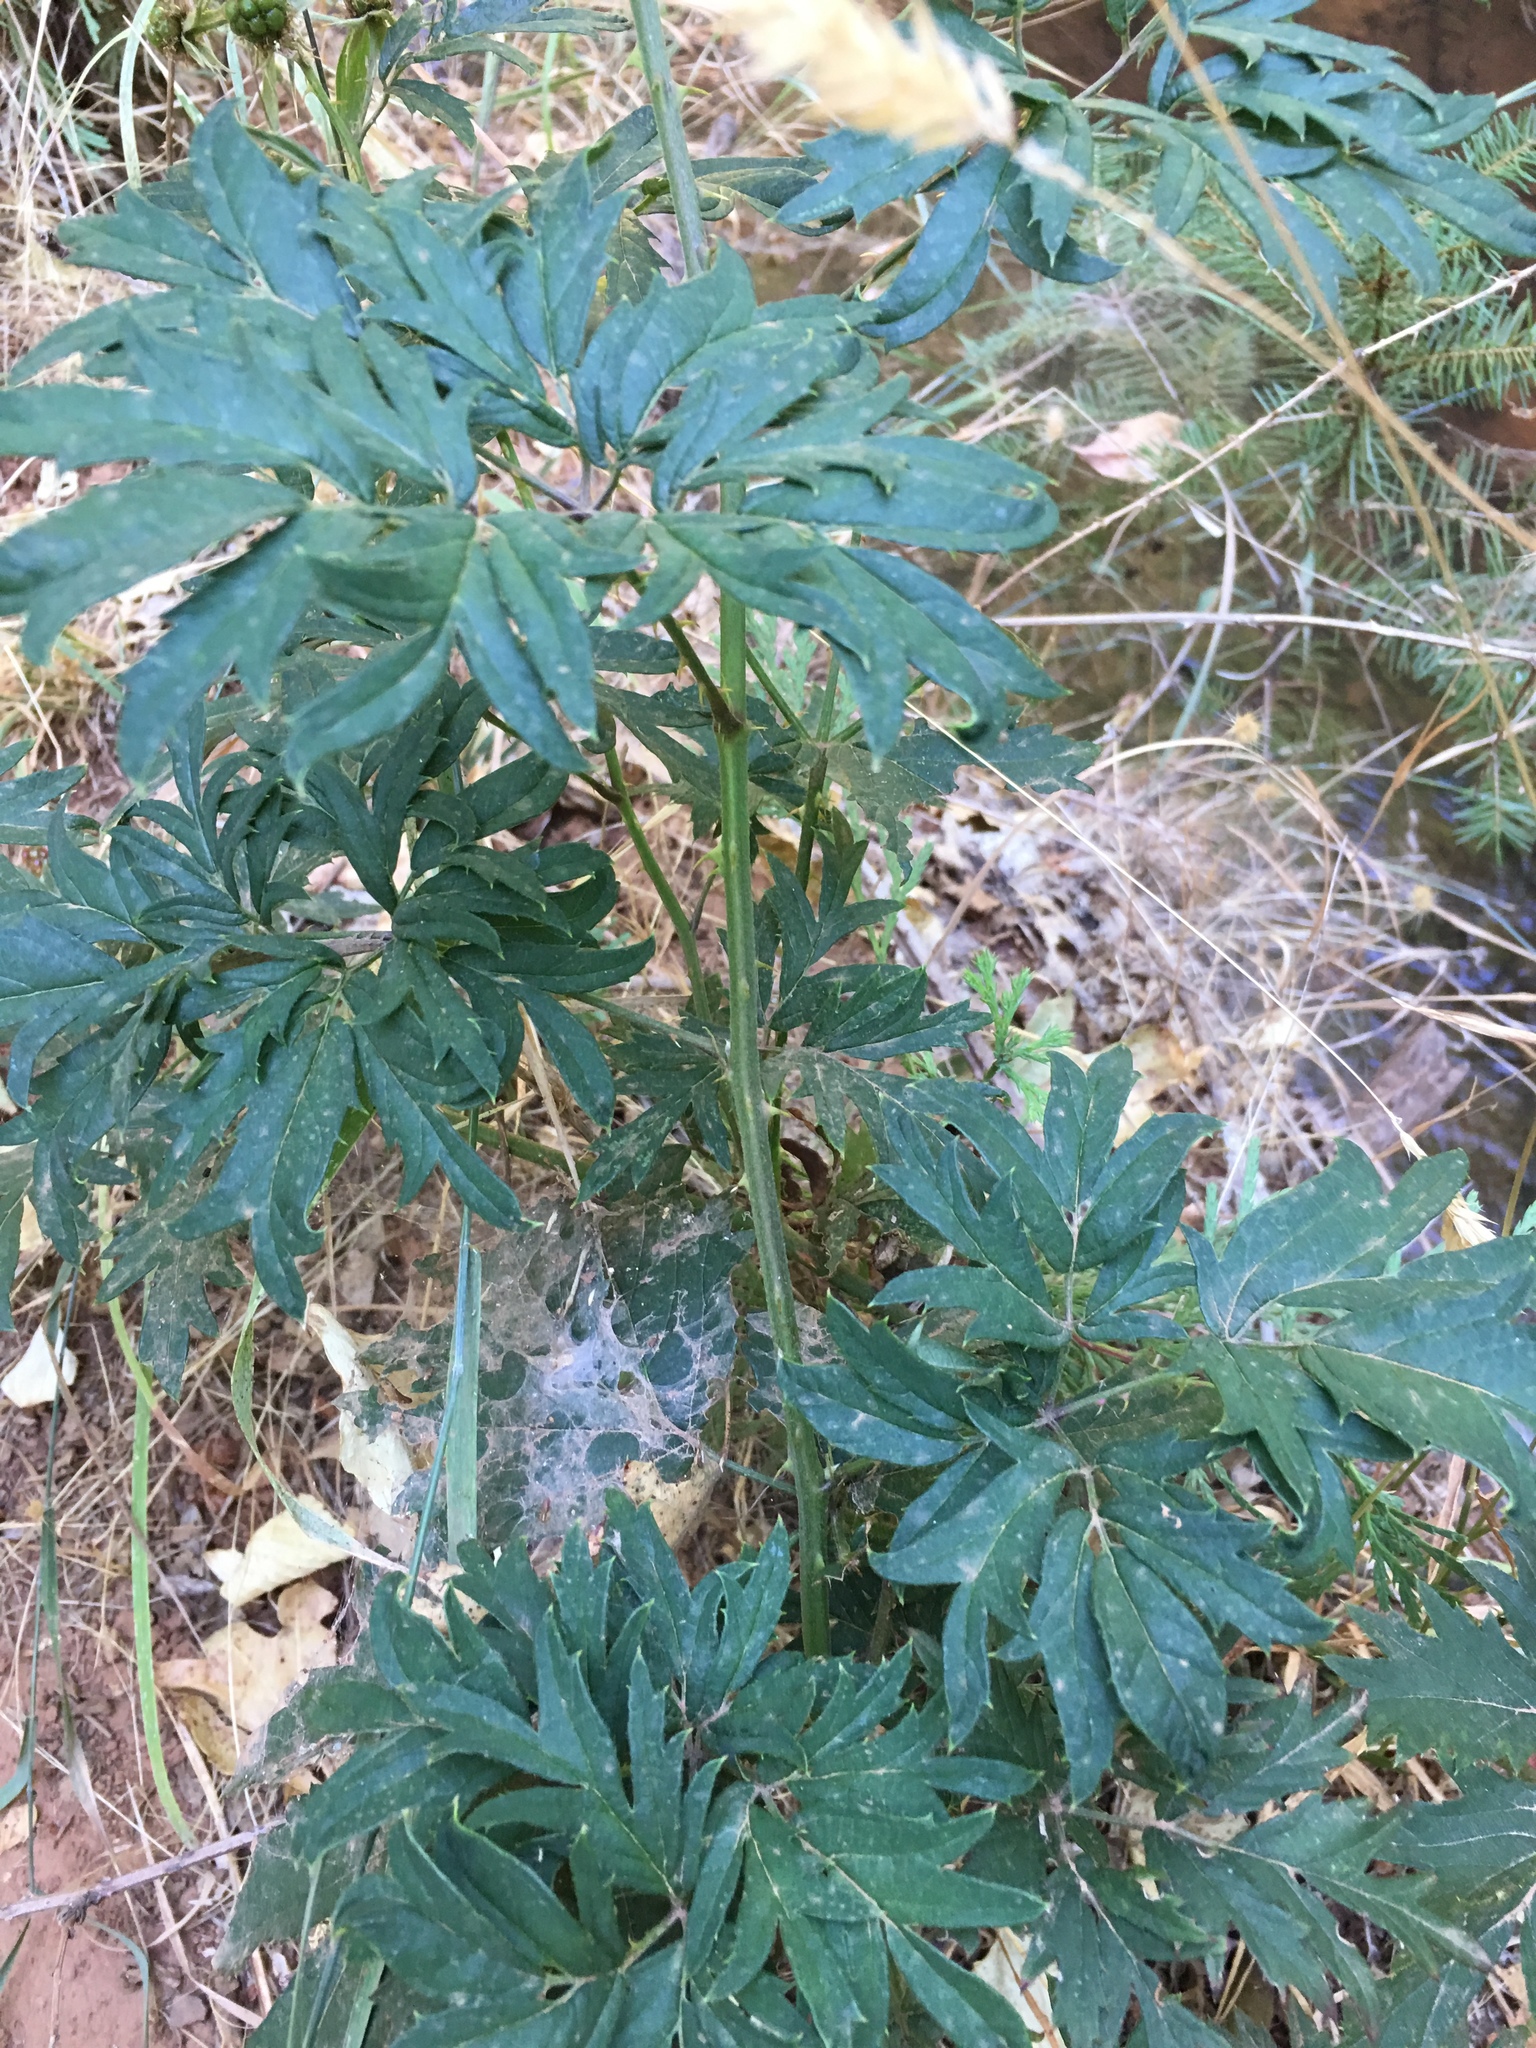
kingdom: Plantae
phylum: Tracheophyta
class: Magnoliopsida
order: Rosales
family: Rosaceae
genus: Rubus
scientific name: Rubus laciniatus
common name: Evergreen blackberry
